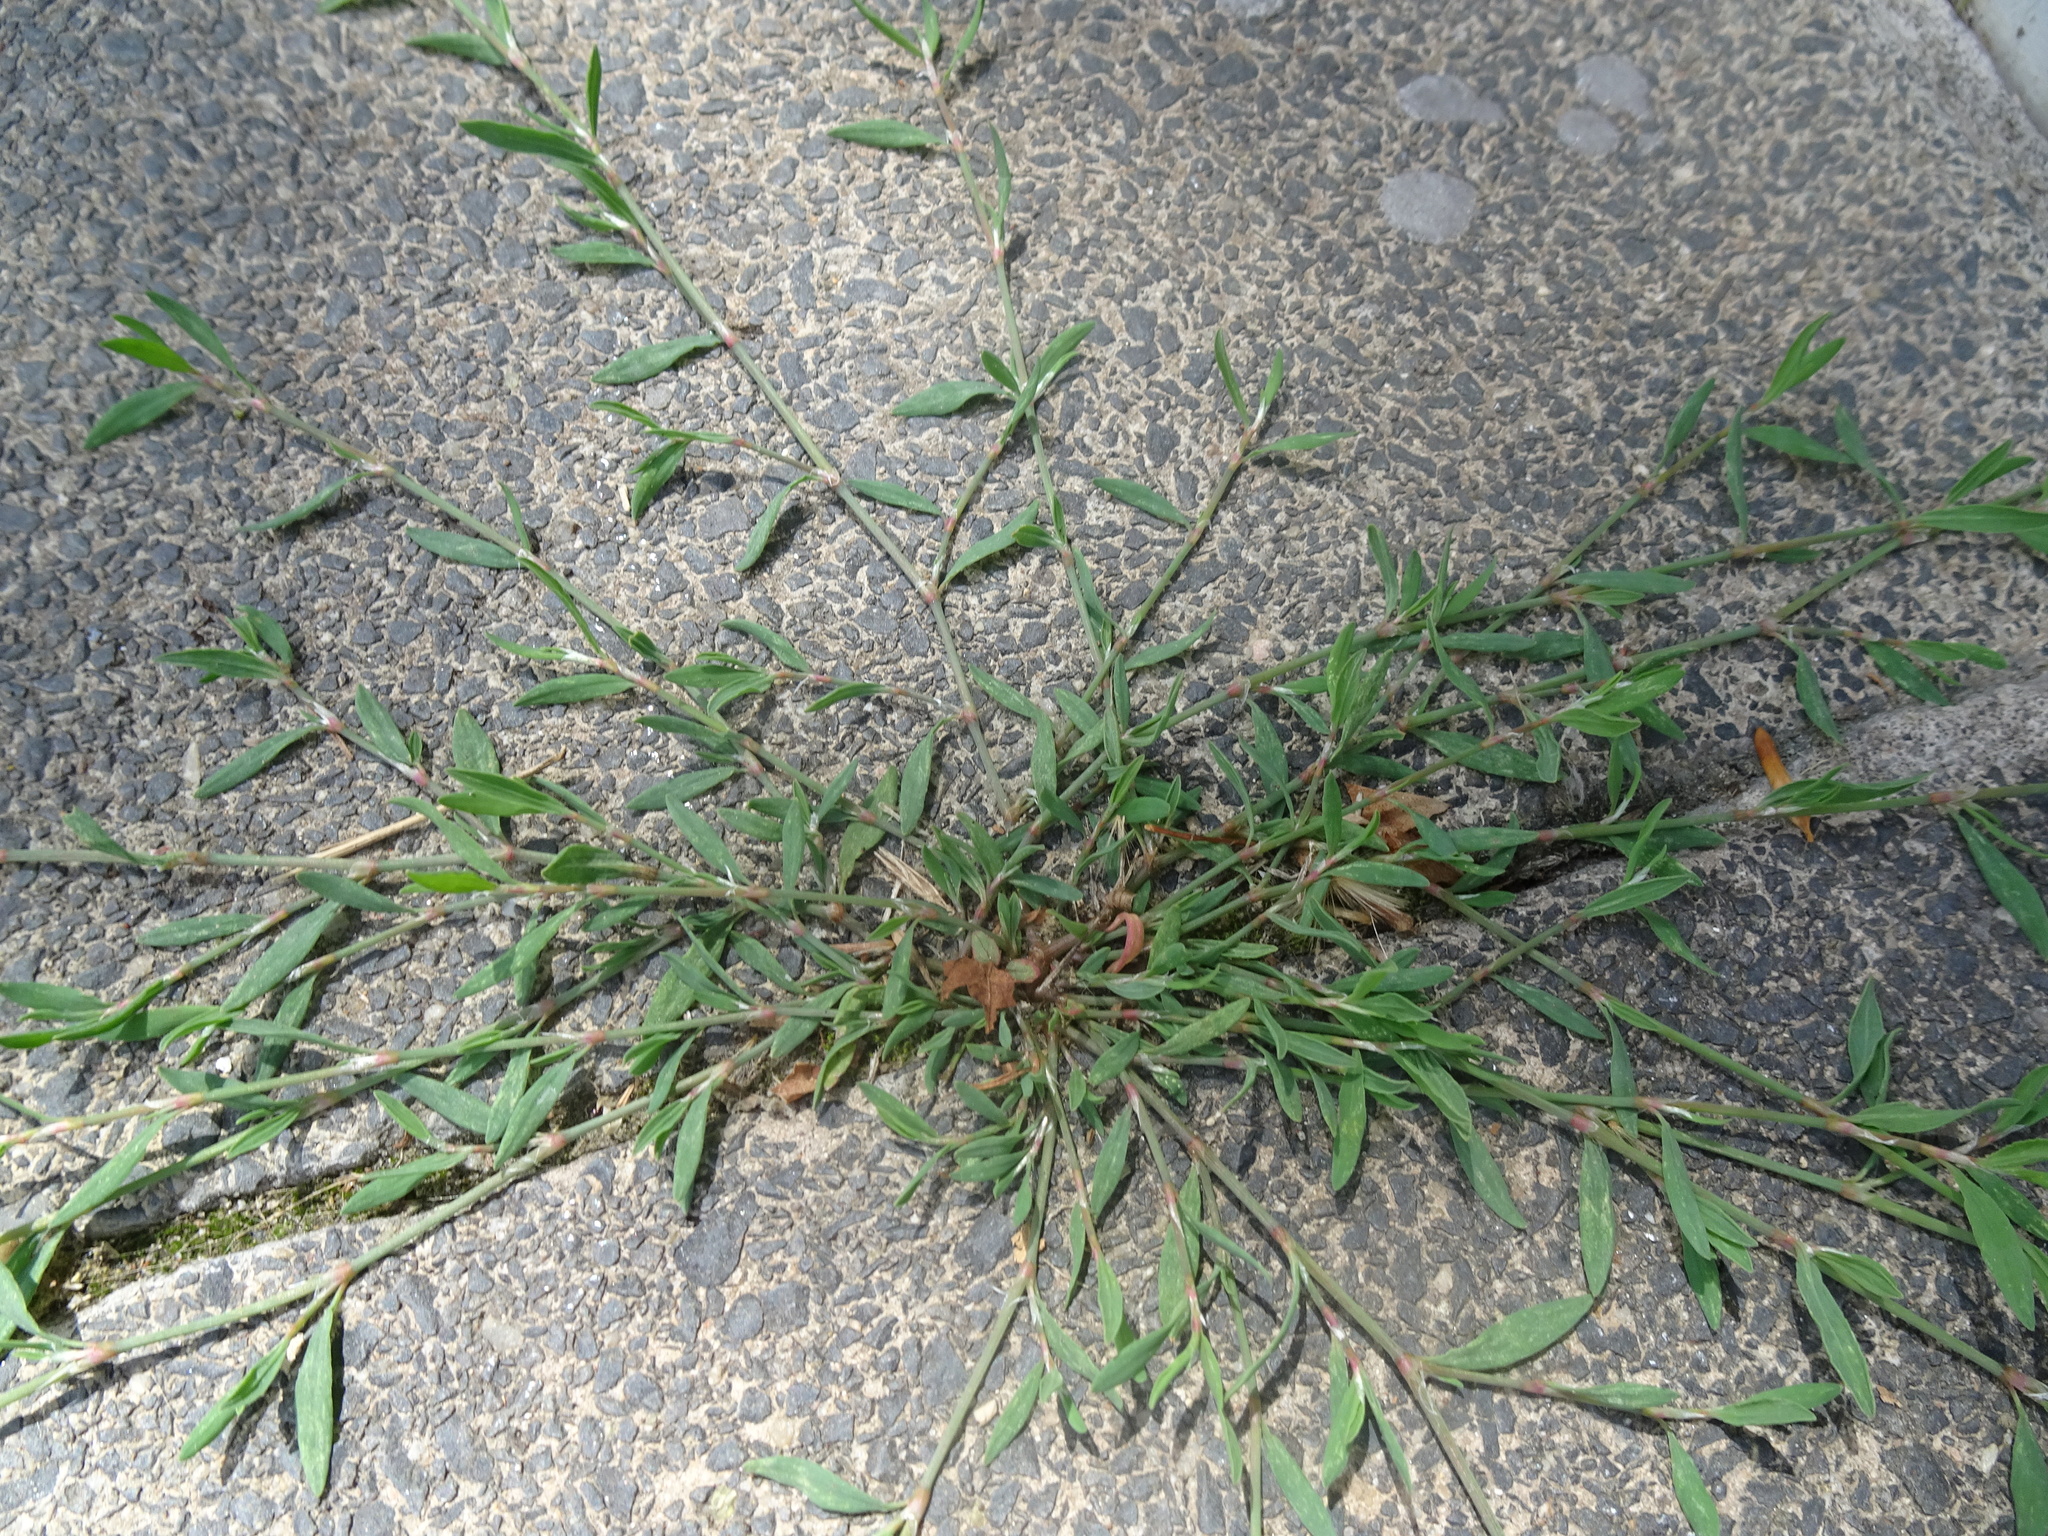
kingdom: Plantae
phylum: Tracheophyta
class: Magnoliopsida
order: Caryophyllales
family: Polygonaceae
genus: Polygonum
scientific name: Polygonum aviculare
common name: Prostrate knotweed
